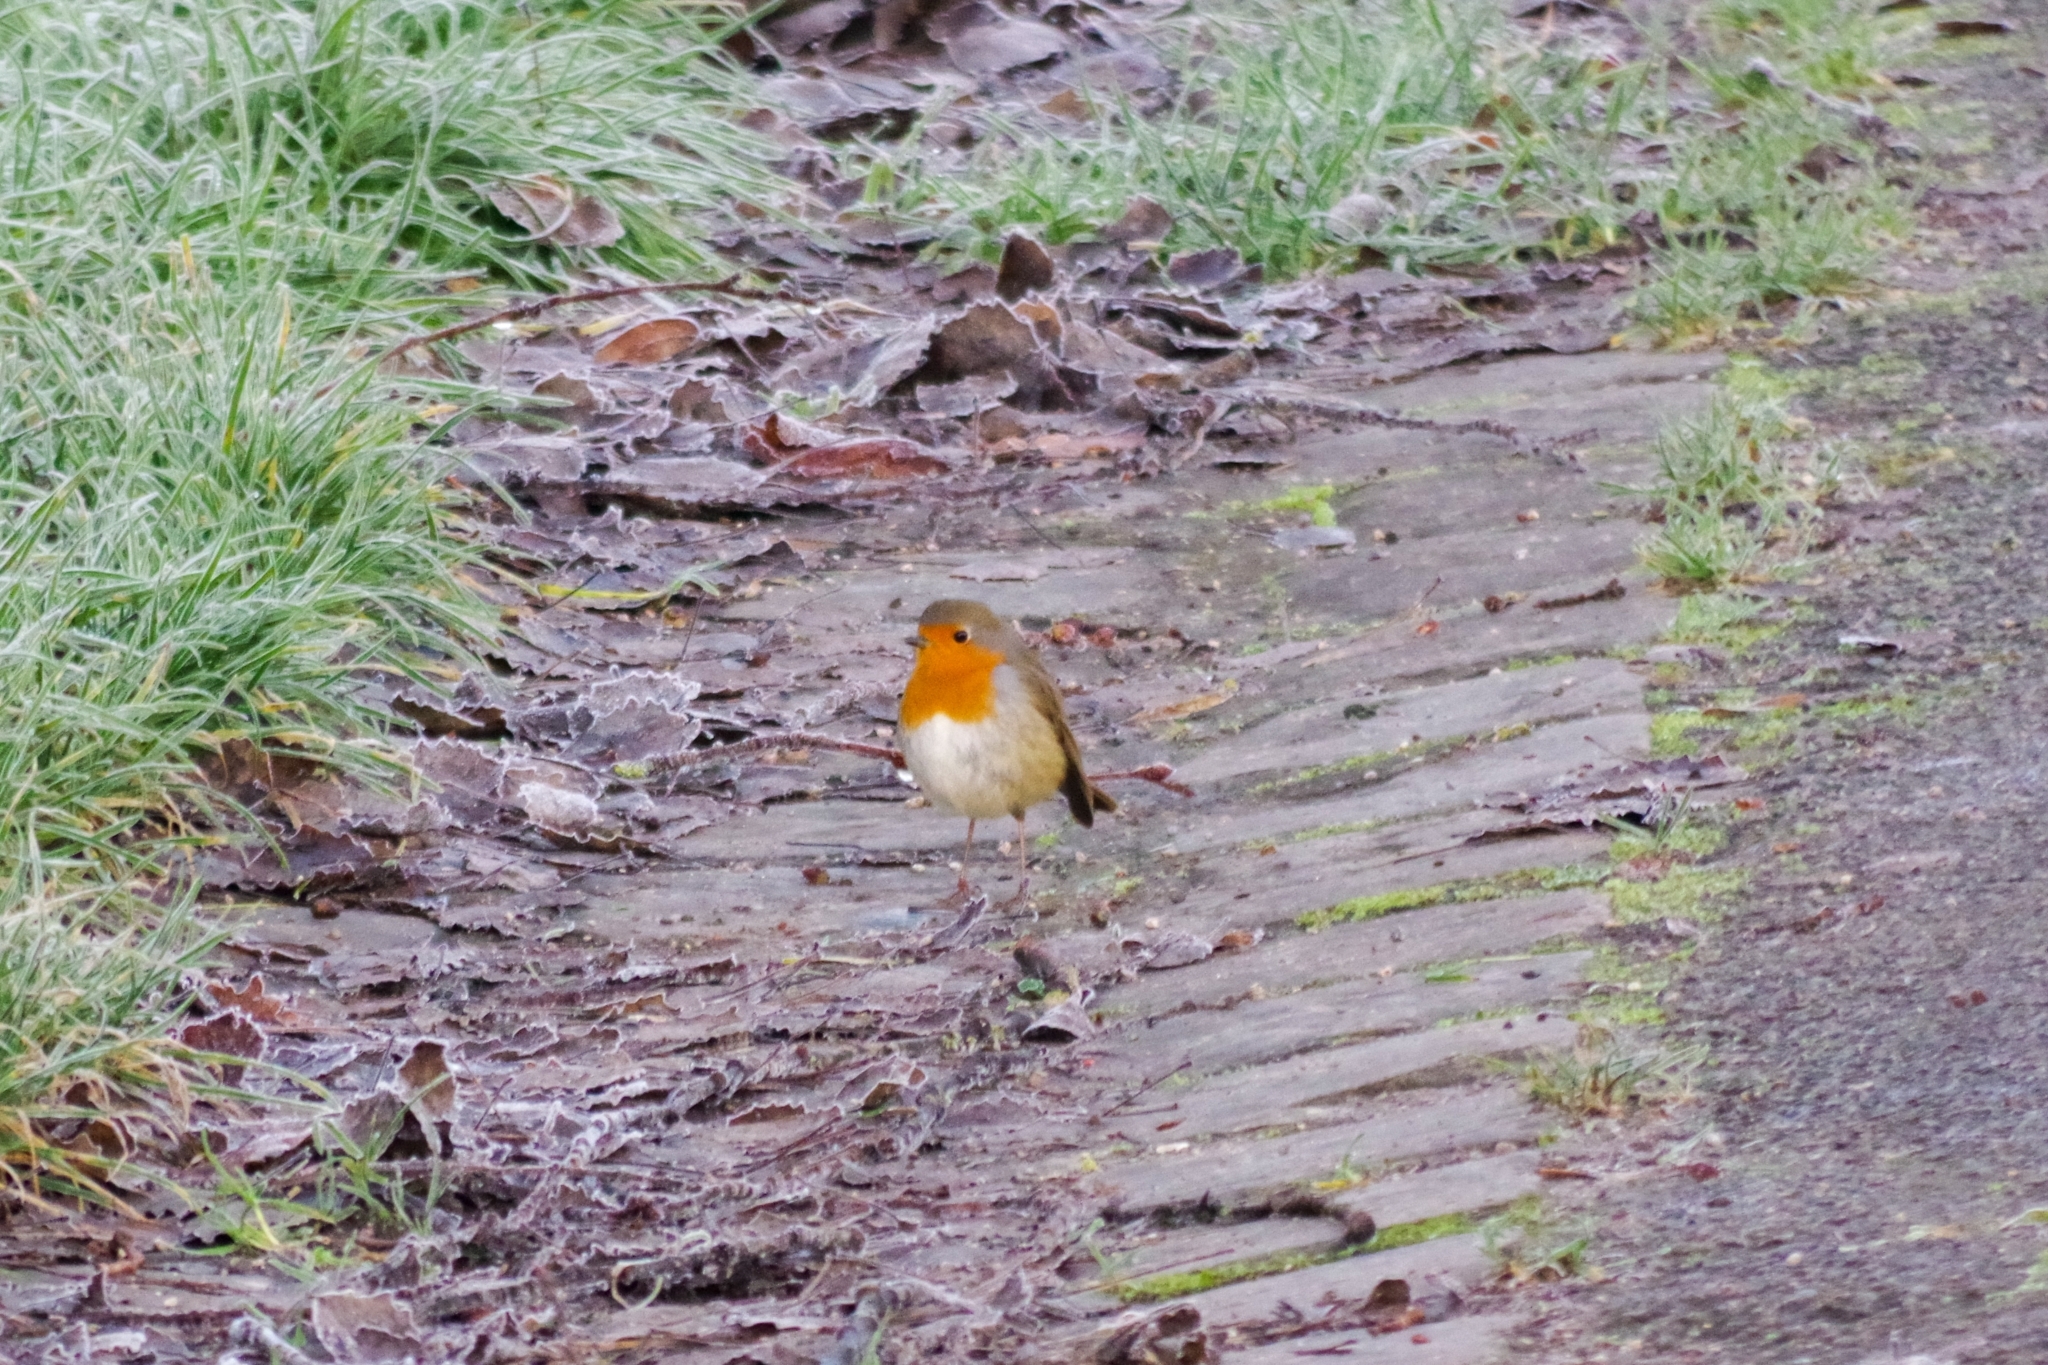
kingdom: Animalia
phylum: Chordata
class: Aves
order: Passeriformes
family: Muscicapidae
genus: Erithacus
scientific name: Erithacus rubecula
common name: European robin
